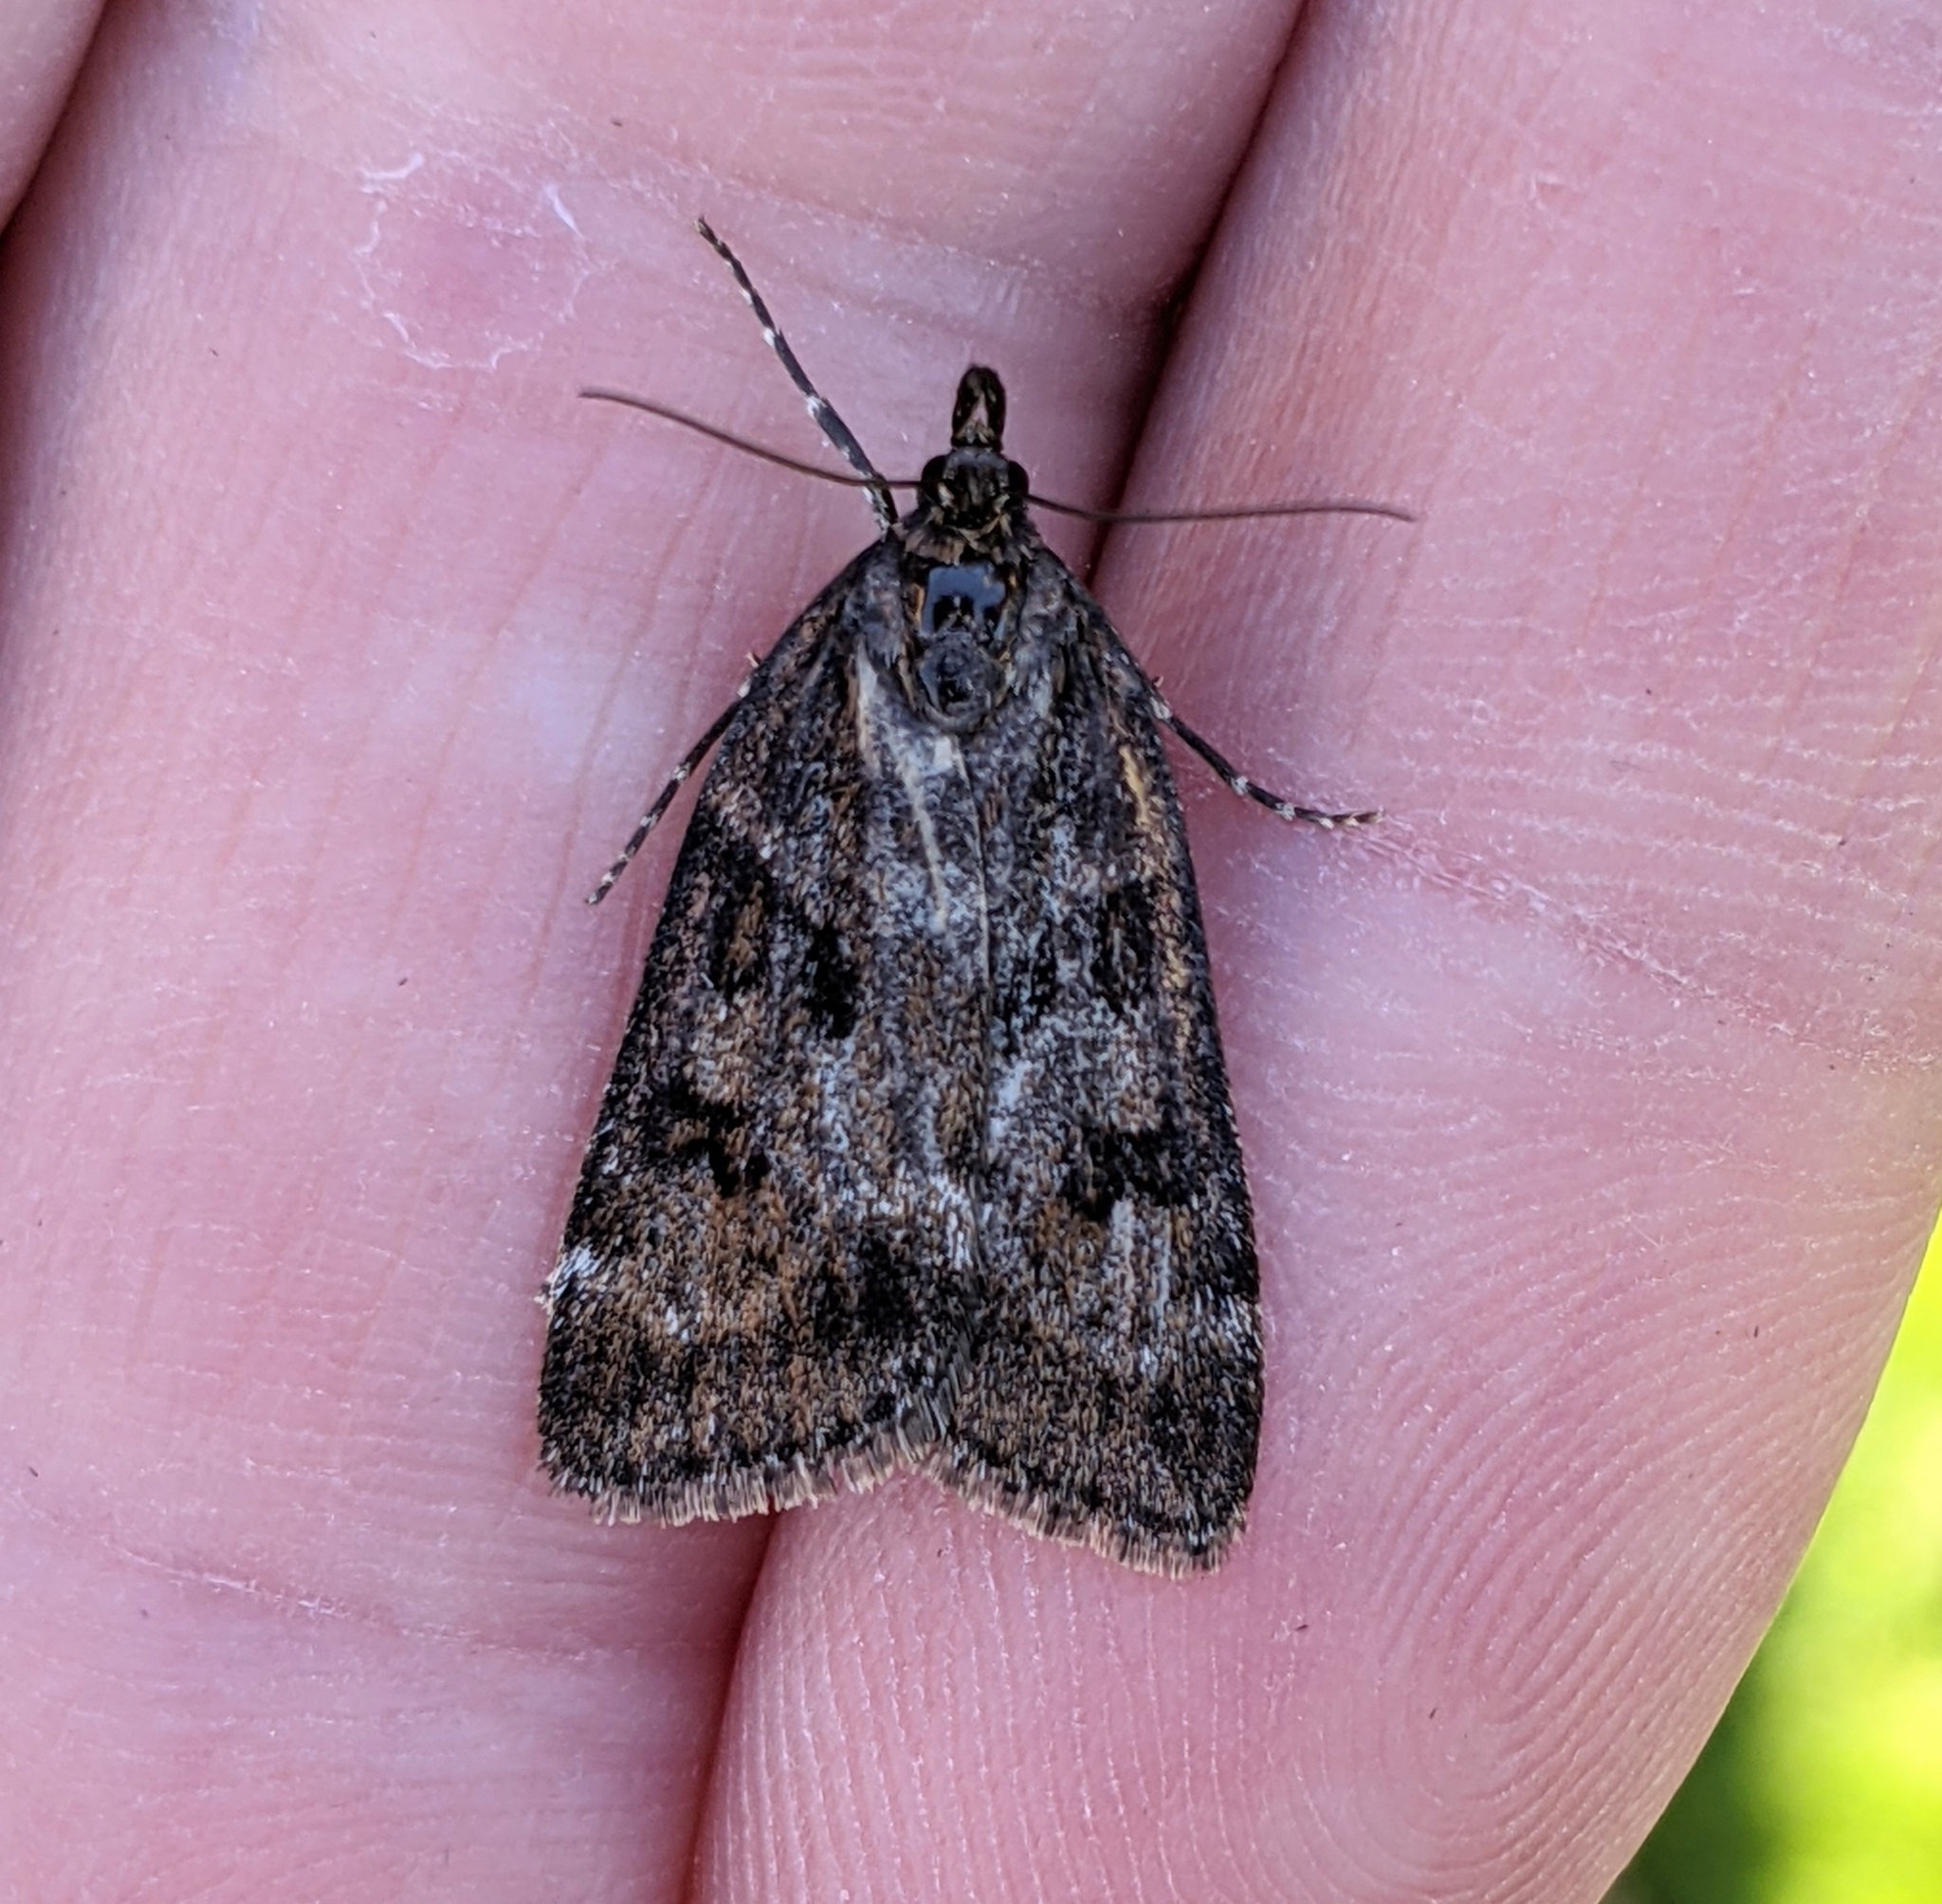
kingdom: Animalia
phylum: Arthropoda
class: Insecta
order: Lepidoptera
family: Crambidae
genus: Gesneria
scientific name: Gesneria centuriella
